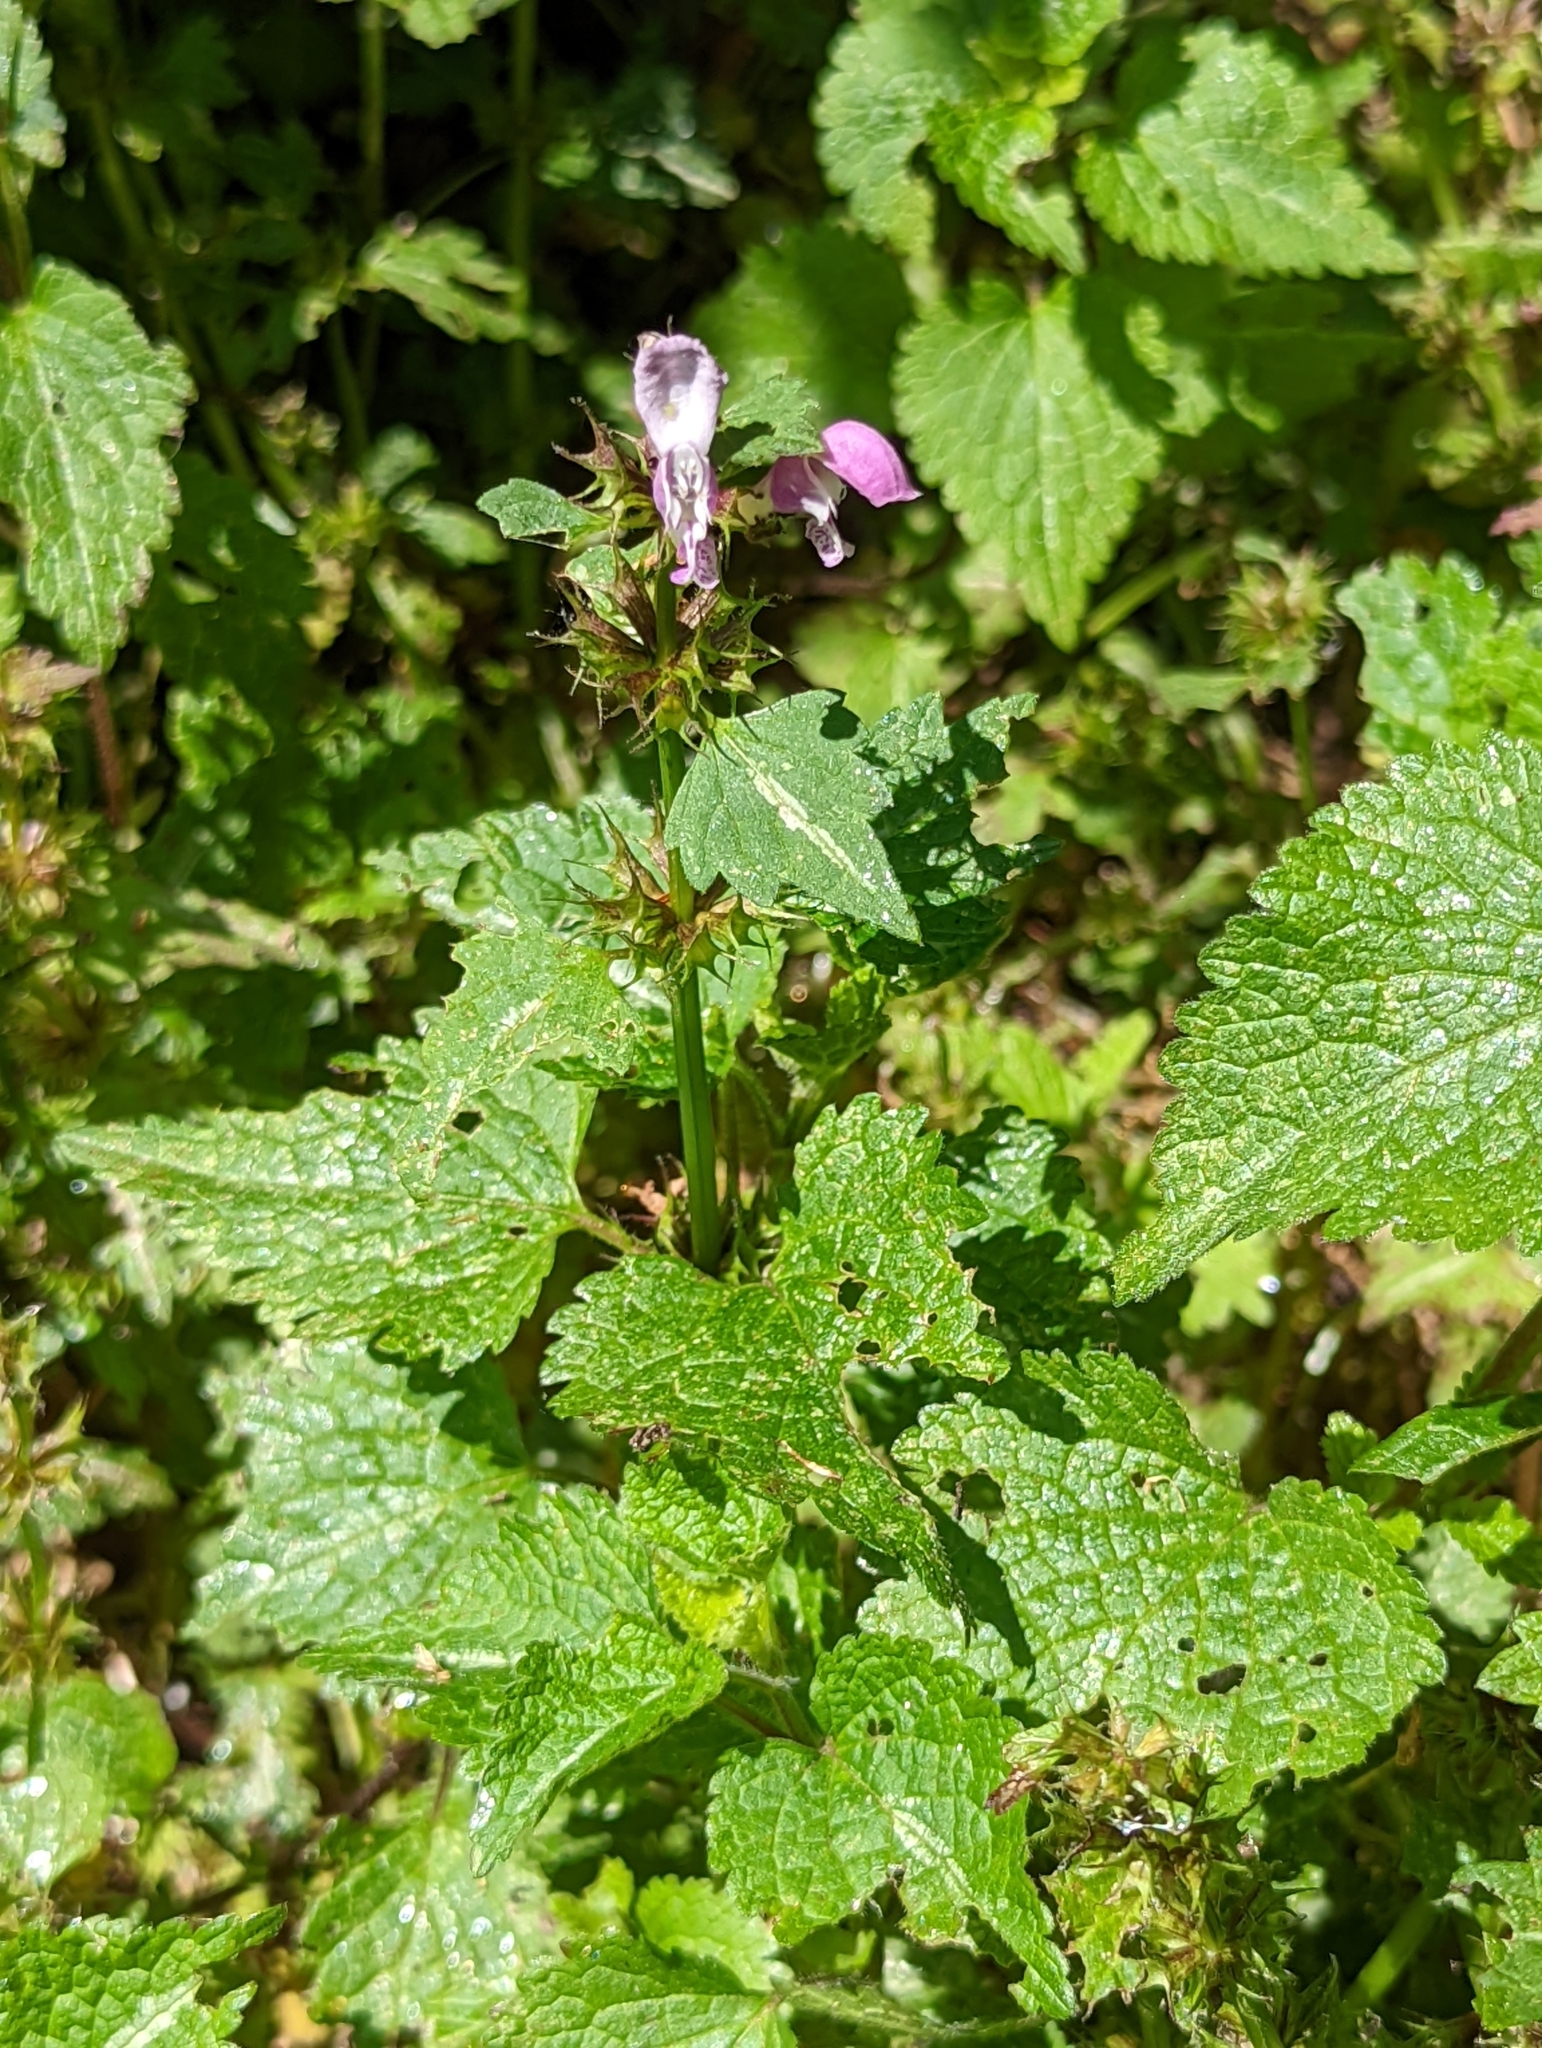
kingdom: Plantae
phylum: Tracheophyta
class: Magnoliopsida
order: Lamiales
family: Lamiaceae
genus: Lamium
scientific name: Lamium maculatum
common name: Spotted dead-nettle
